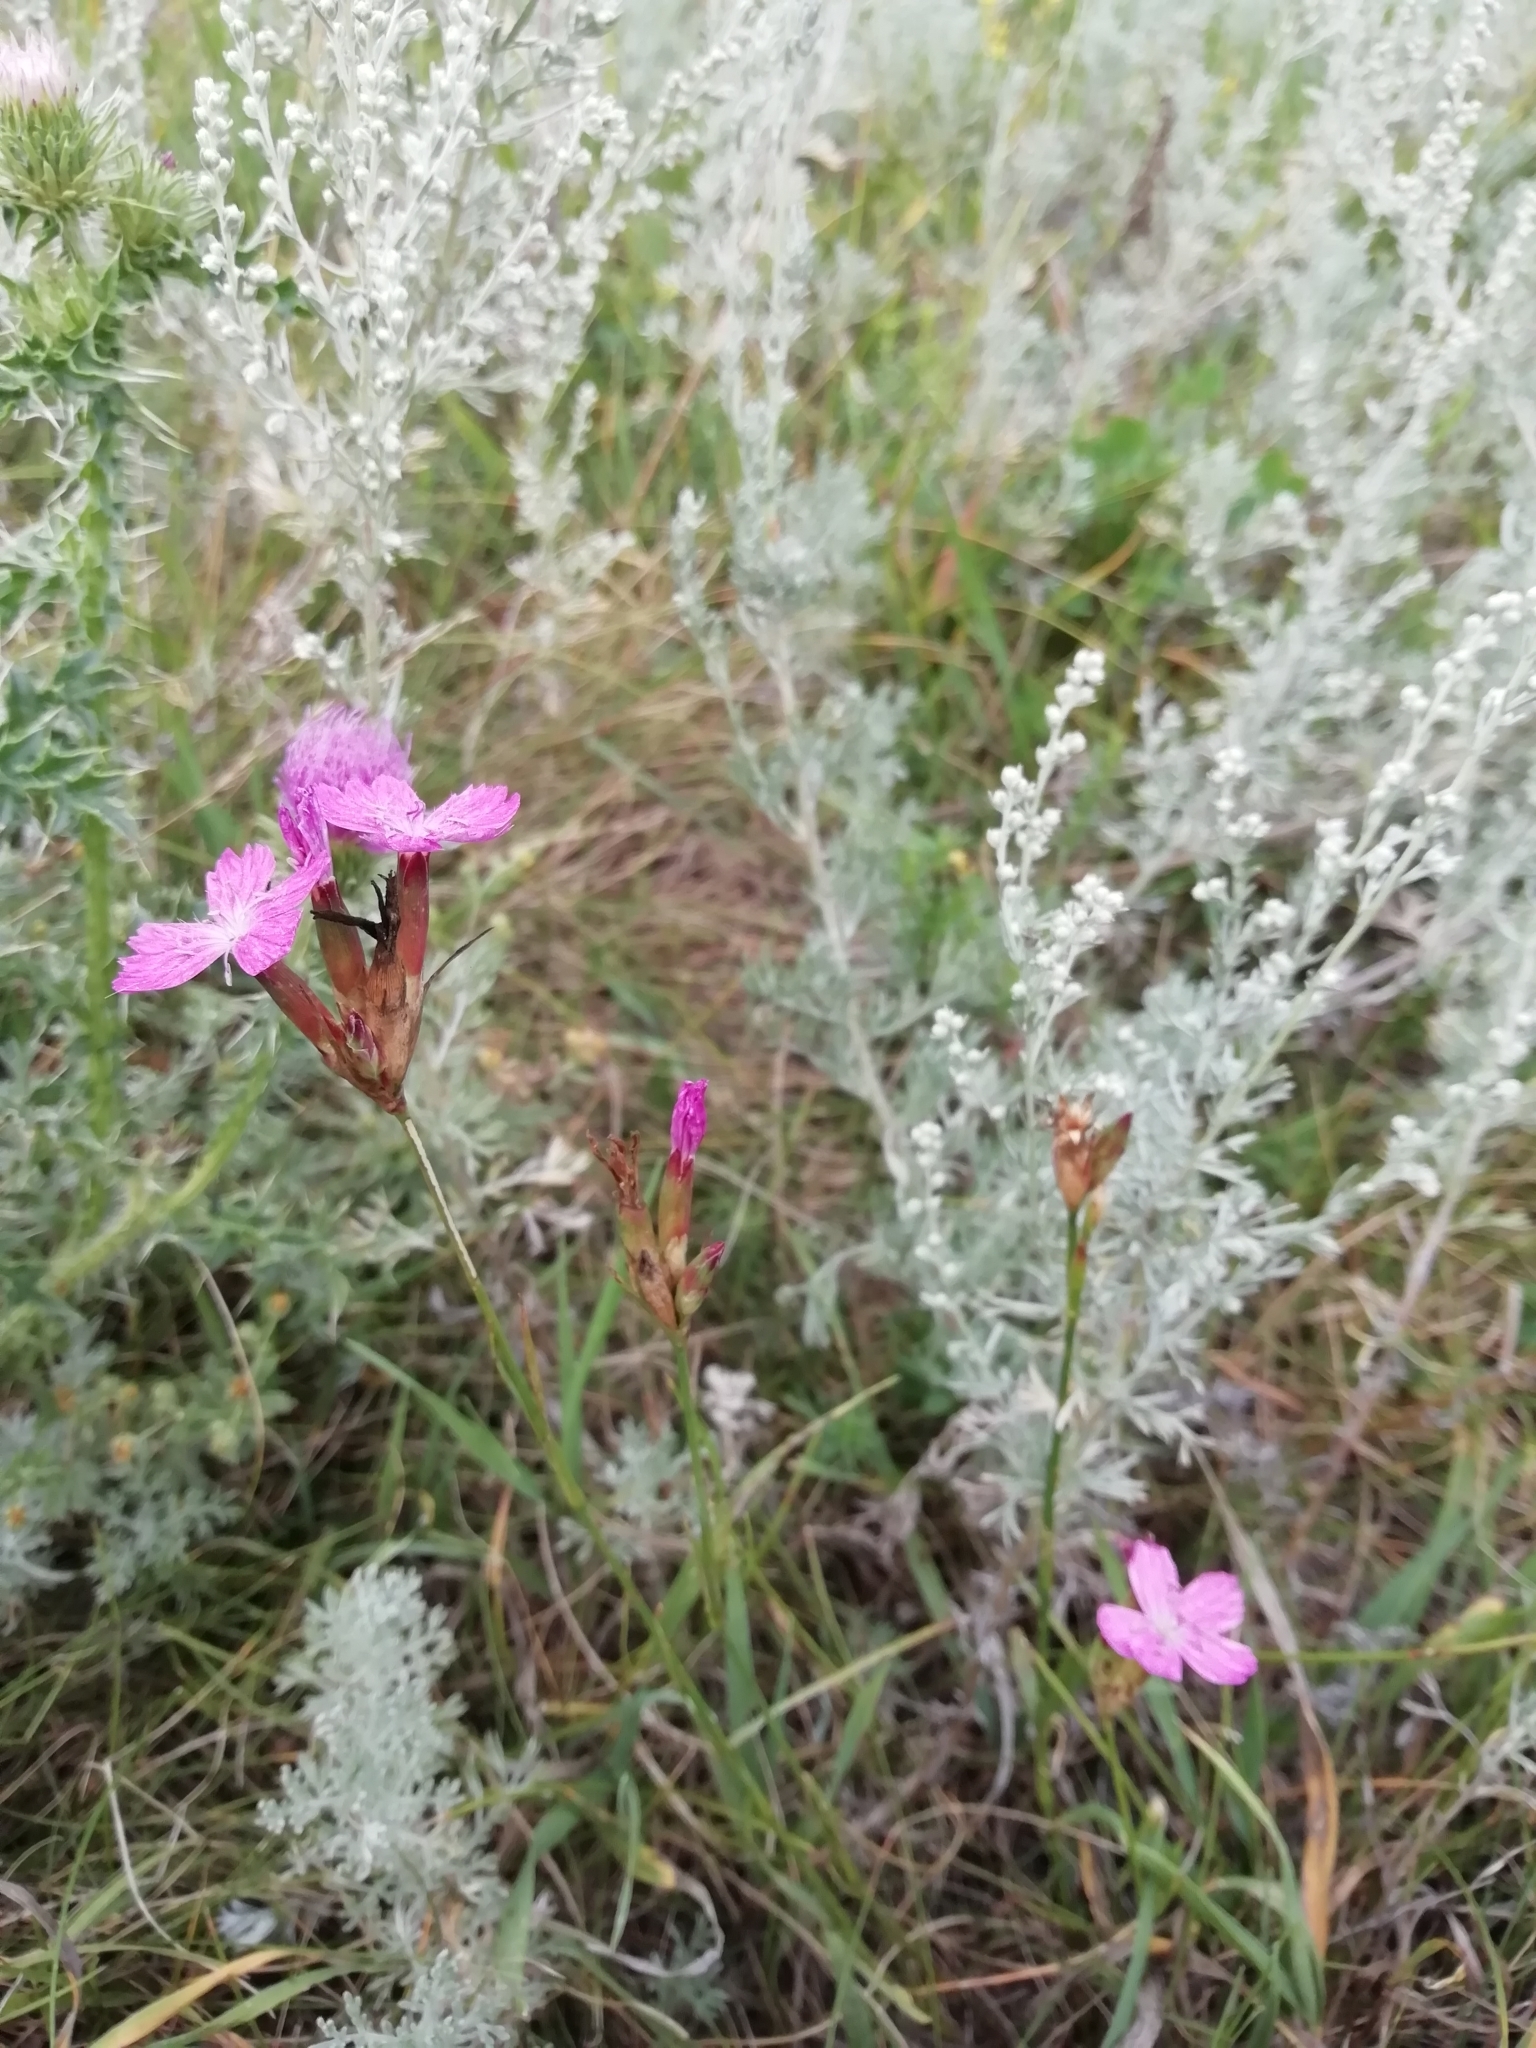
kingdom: Plantae
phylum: Tracheophyta
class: Magnoliopsida
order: Caryophyllales
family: Caryophyllaceae
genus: Dianthus
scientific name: Dianthus borbasii
